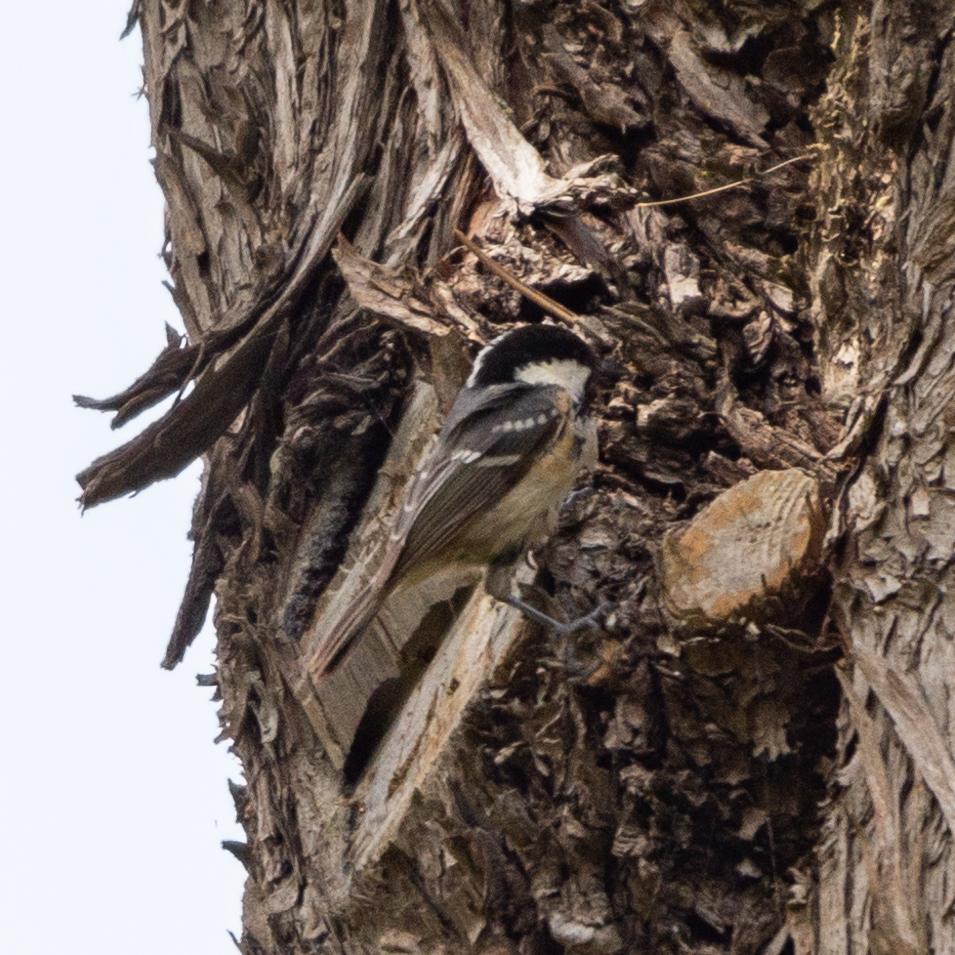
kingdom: Animalia
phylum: Chordata
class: Aves
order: Passeriformes
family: Paridae
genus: Periparus
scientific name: Periparus ater
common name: Coal tit
